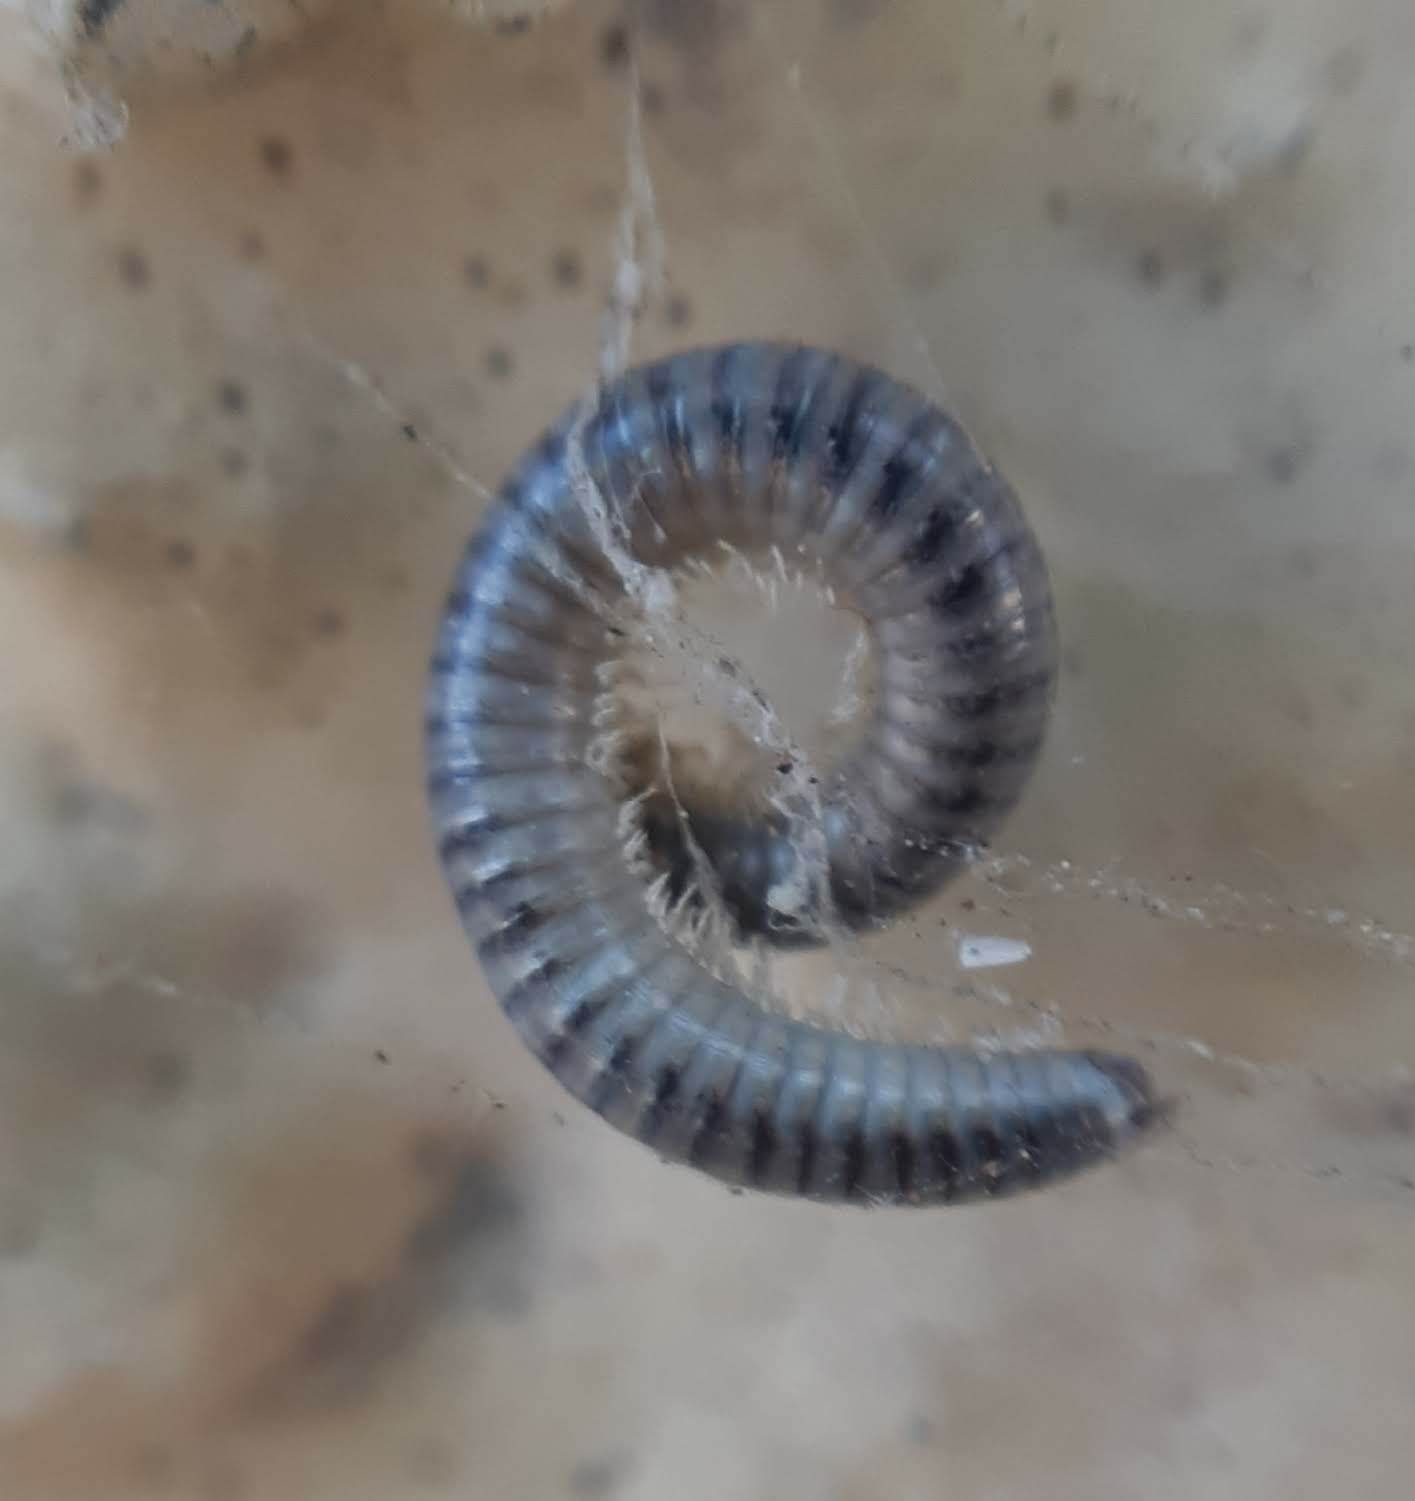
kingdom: Animalia
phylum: Arthropoda
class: Diplopoda
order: Julida
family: Julidae
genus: Ommatoiulus
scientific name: Ommatoiulus moreleti
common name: Portuguese millipede
